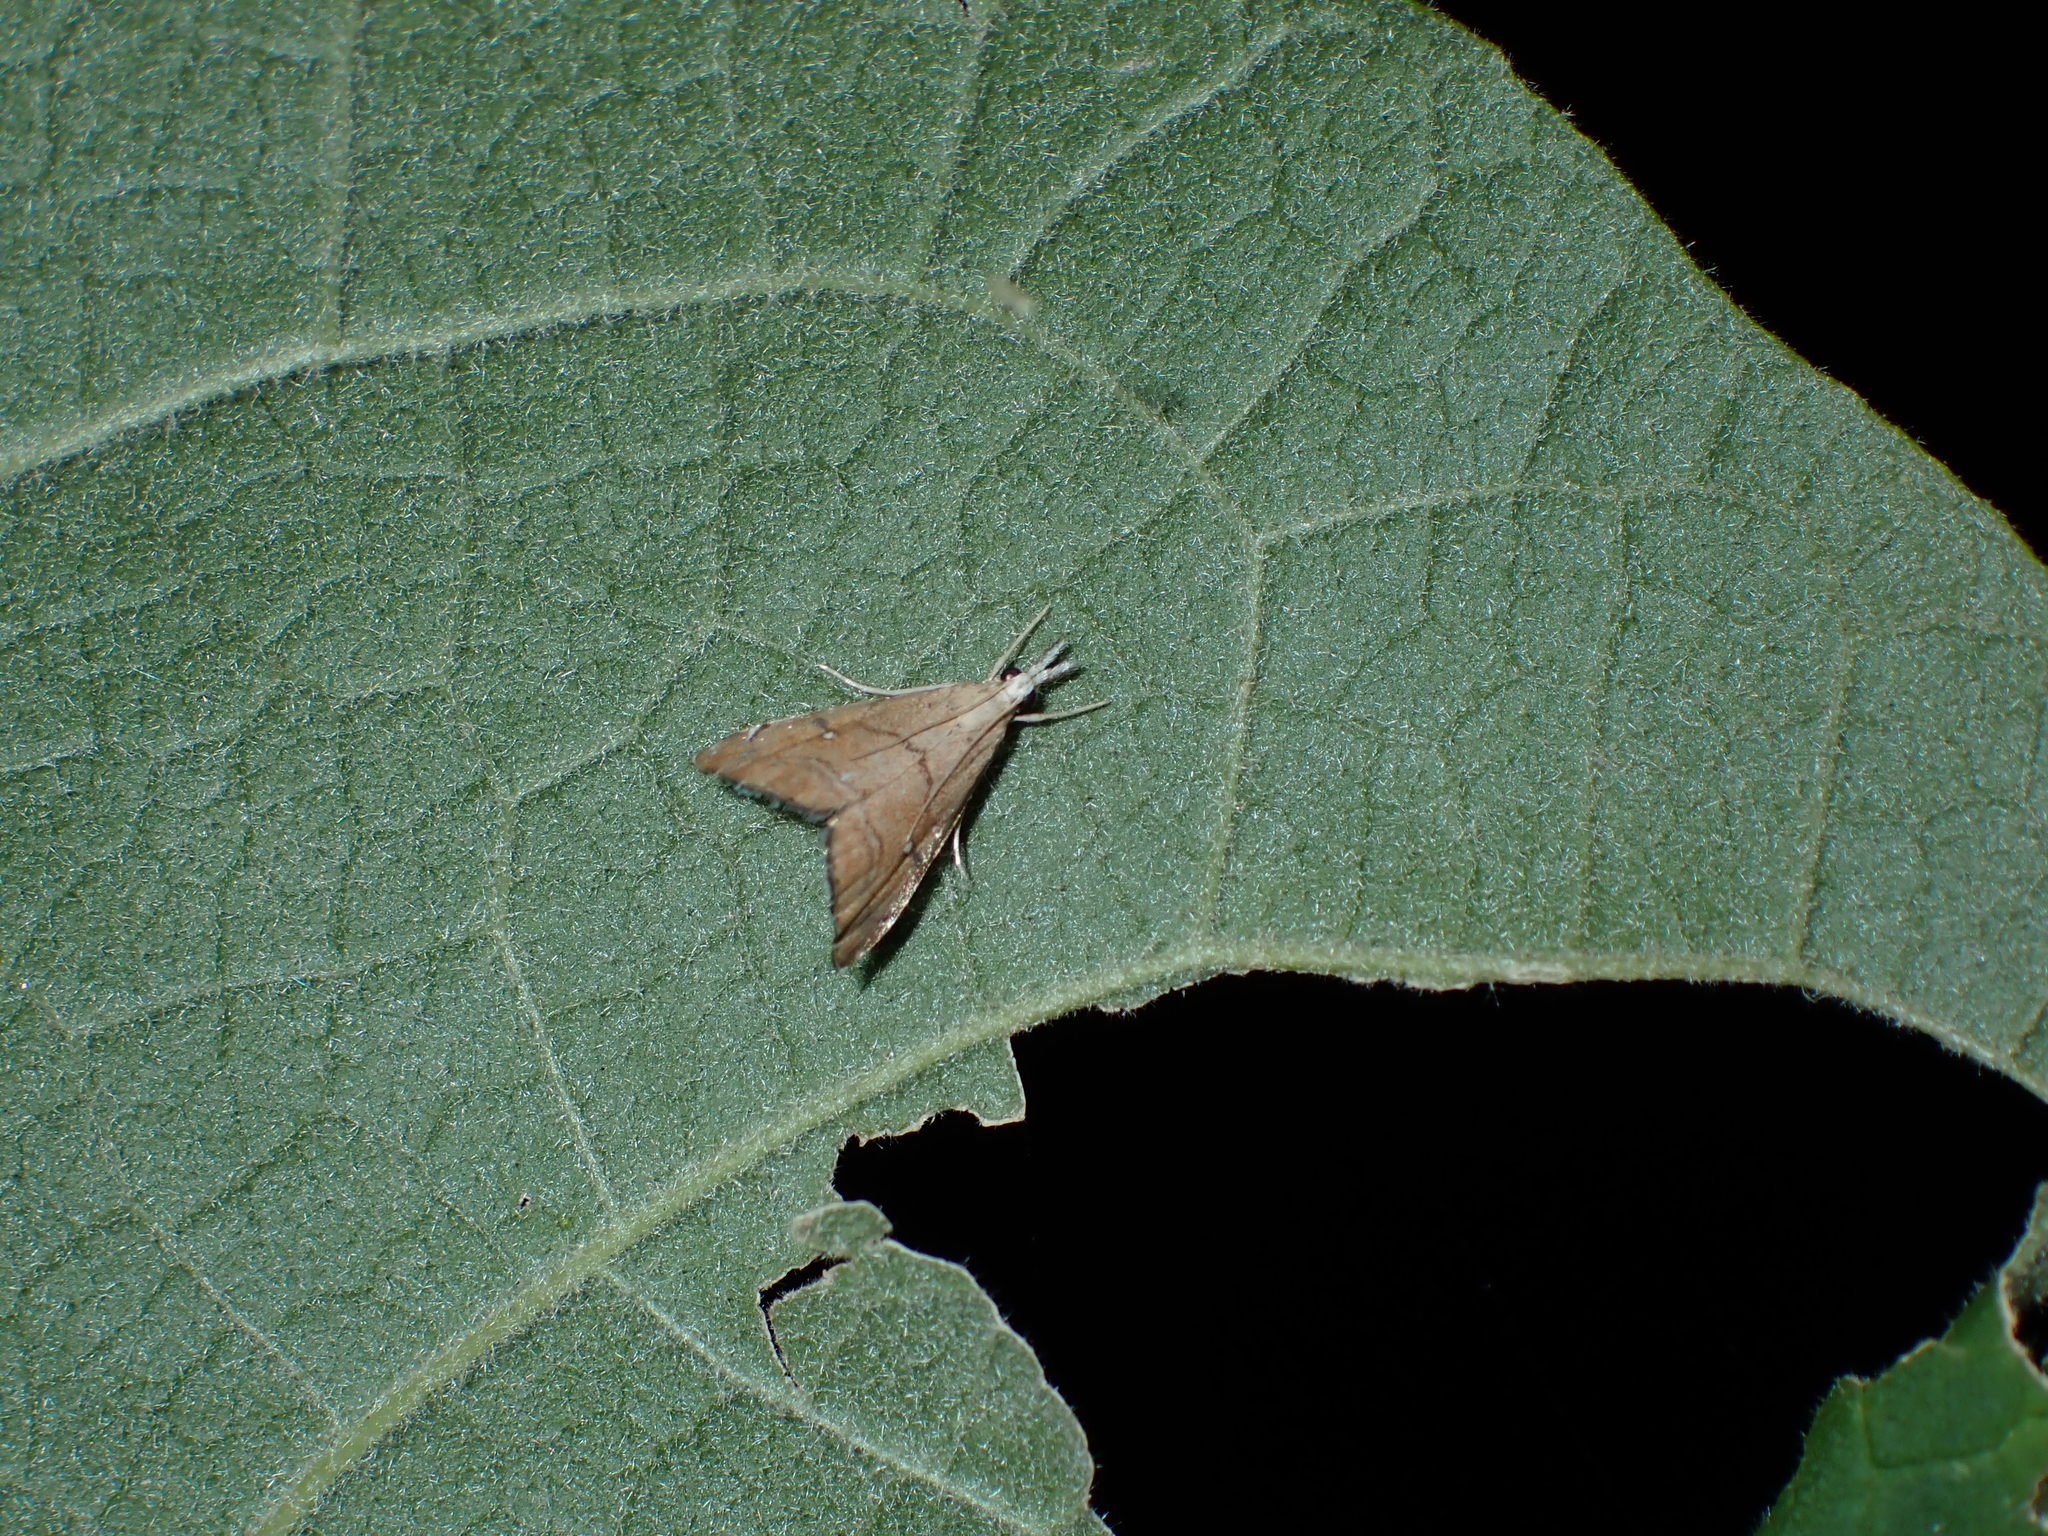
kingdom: Animalia
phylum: Arthropoda
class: Insecta
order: Lepidoptera
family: Crambidae
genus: Glaucocharis
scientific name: Glaucocharis bipunctella
